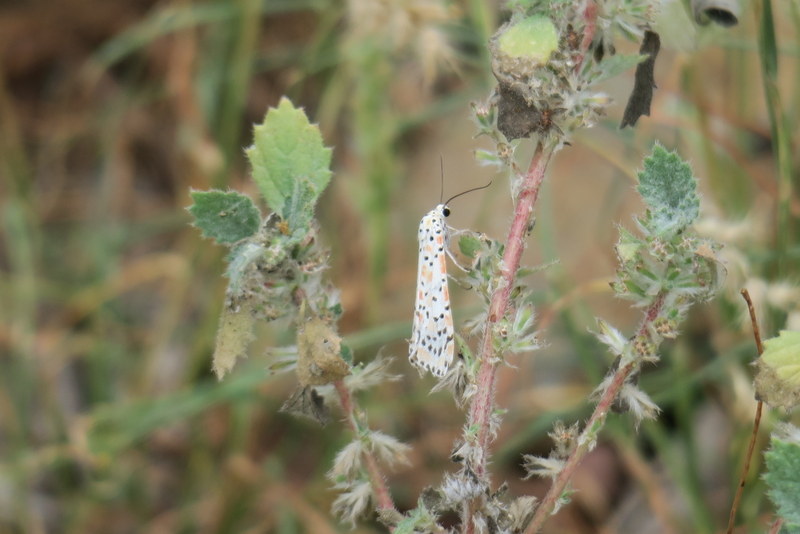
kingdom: Animalia
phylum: Arthropoda
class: Insecta
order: Lepidoptera
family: Erebidae
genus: Utetheisa
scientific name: Utetheisa pulchella
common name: Crimson speckled
